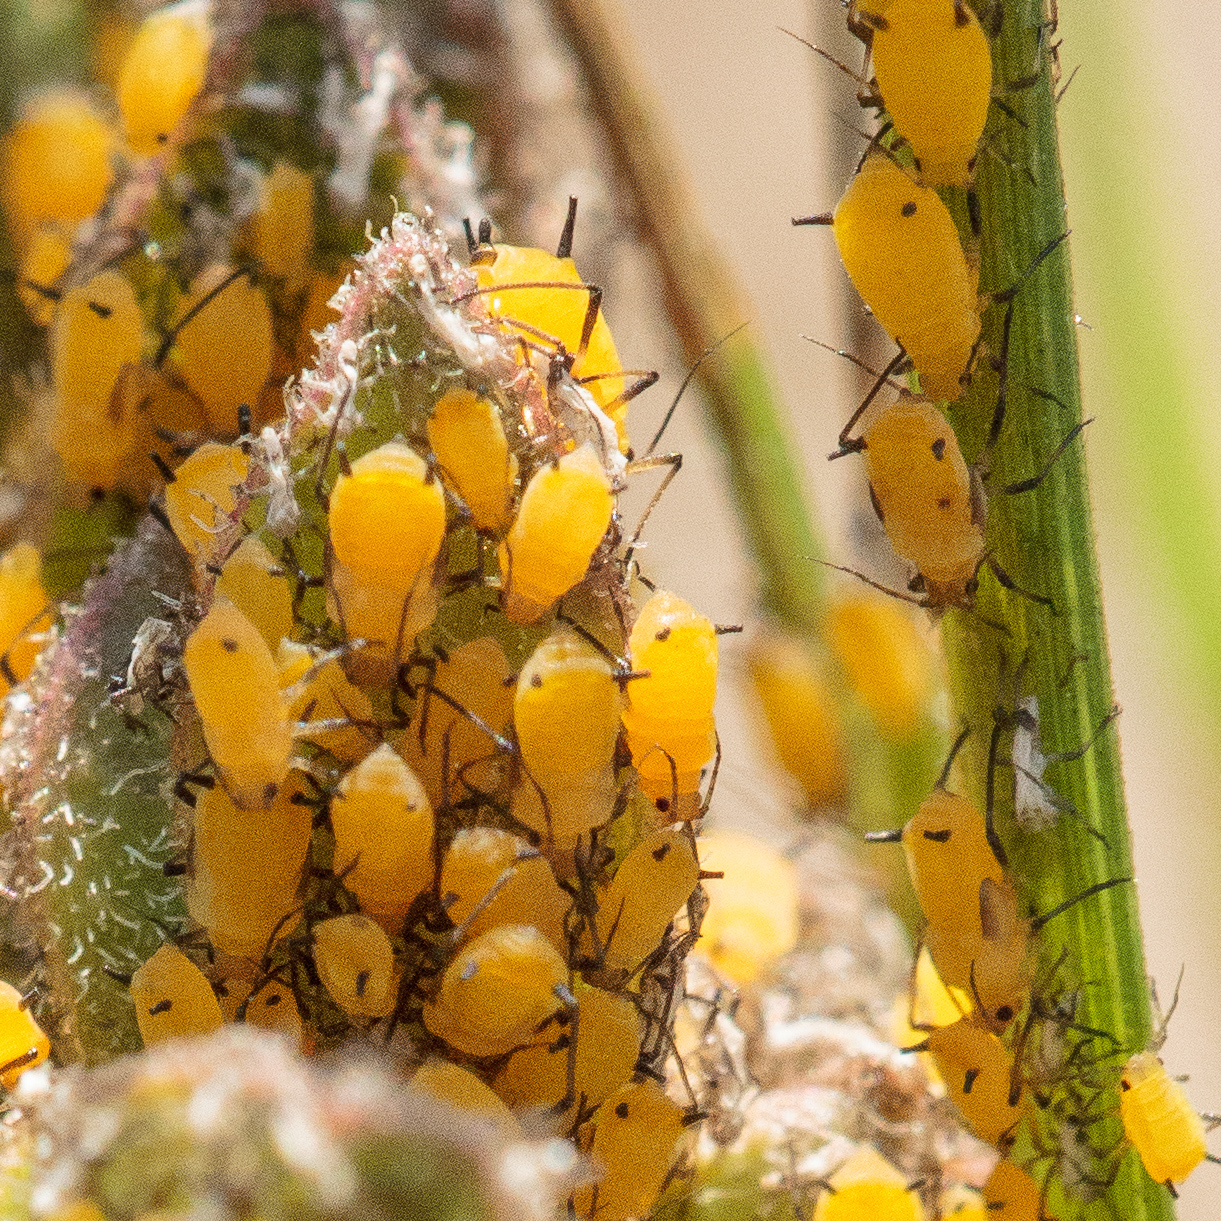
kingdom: Animalia
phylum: Arthropoda
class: Insecta
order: Hemiptera
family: Aphididae
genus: Aphis
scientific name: Aphis nerii
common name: Oleander aphid
